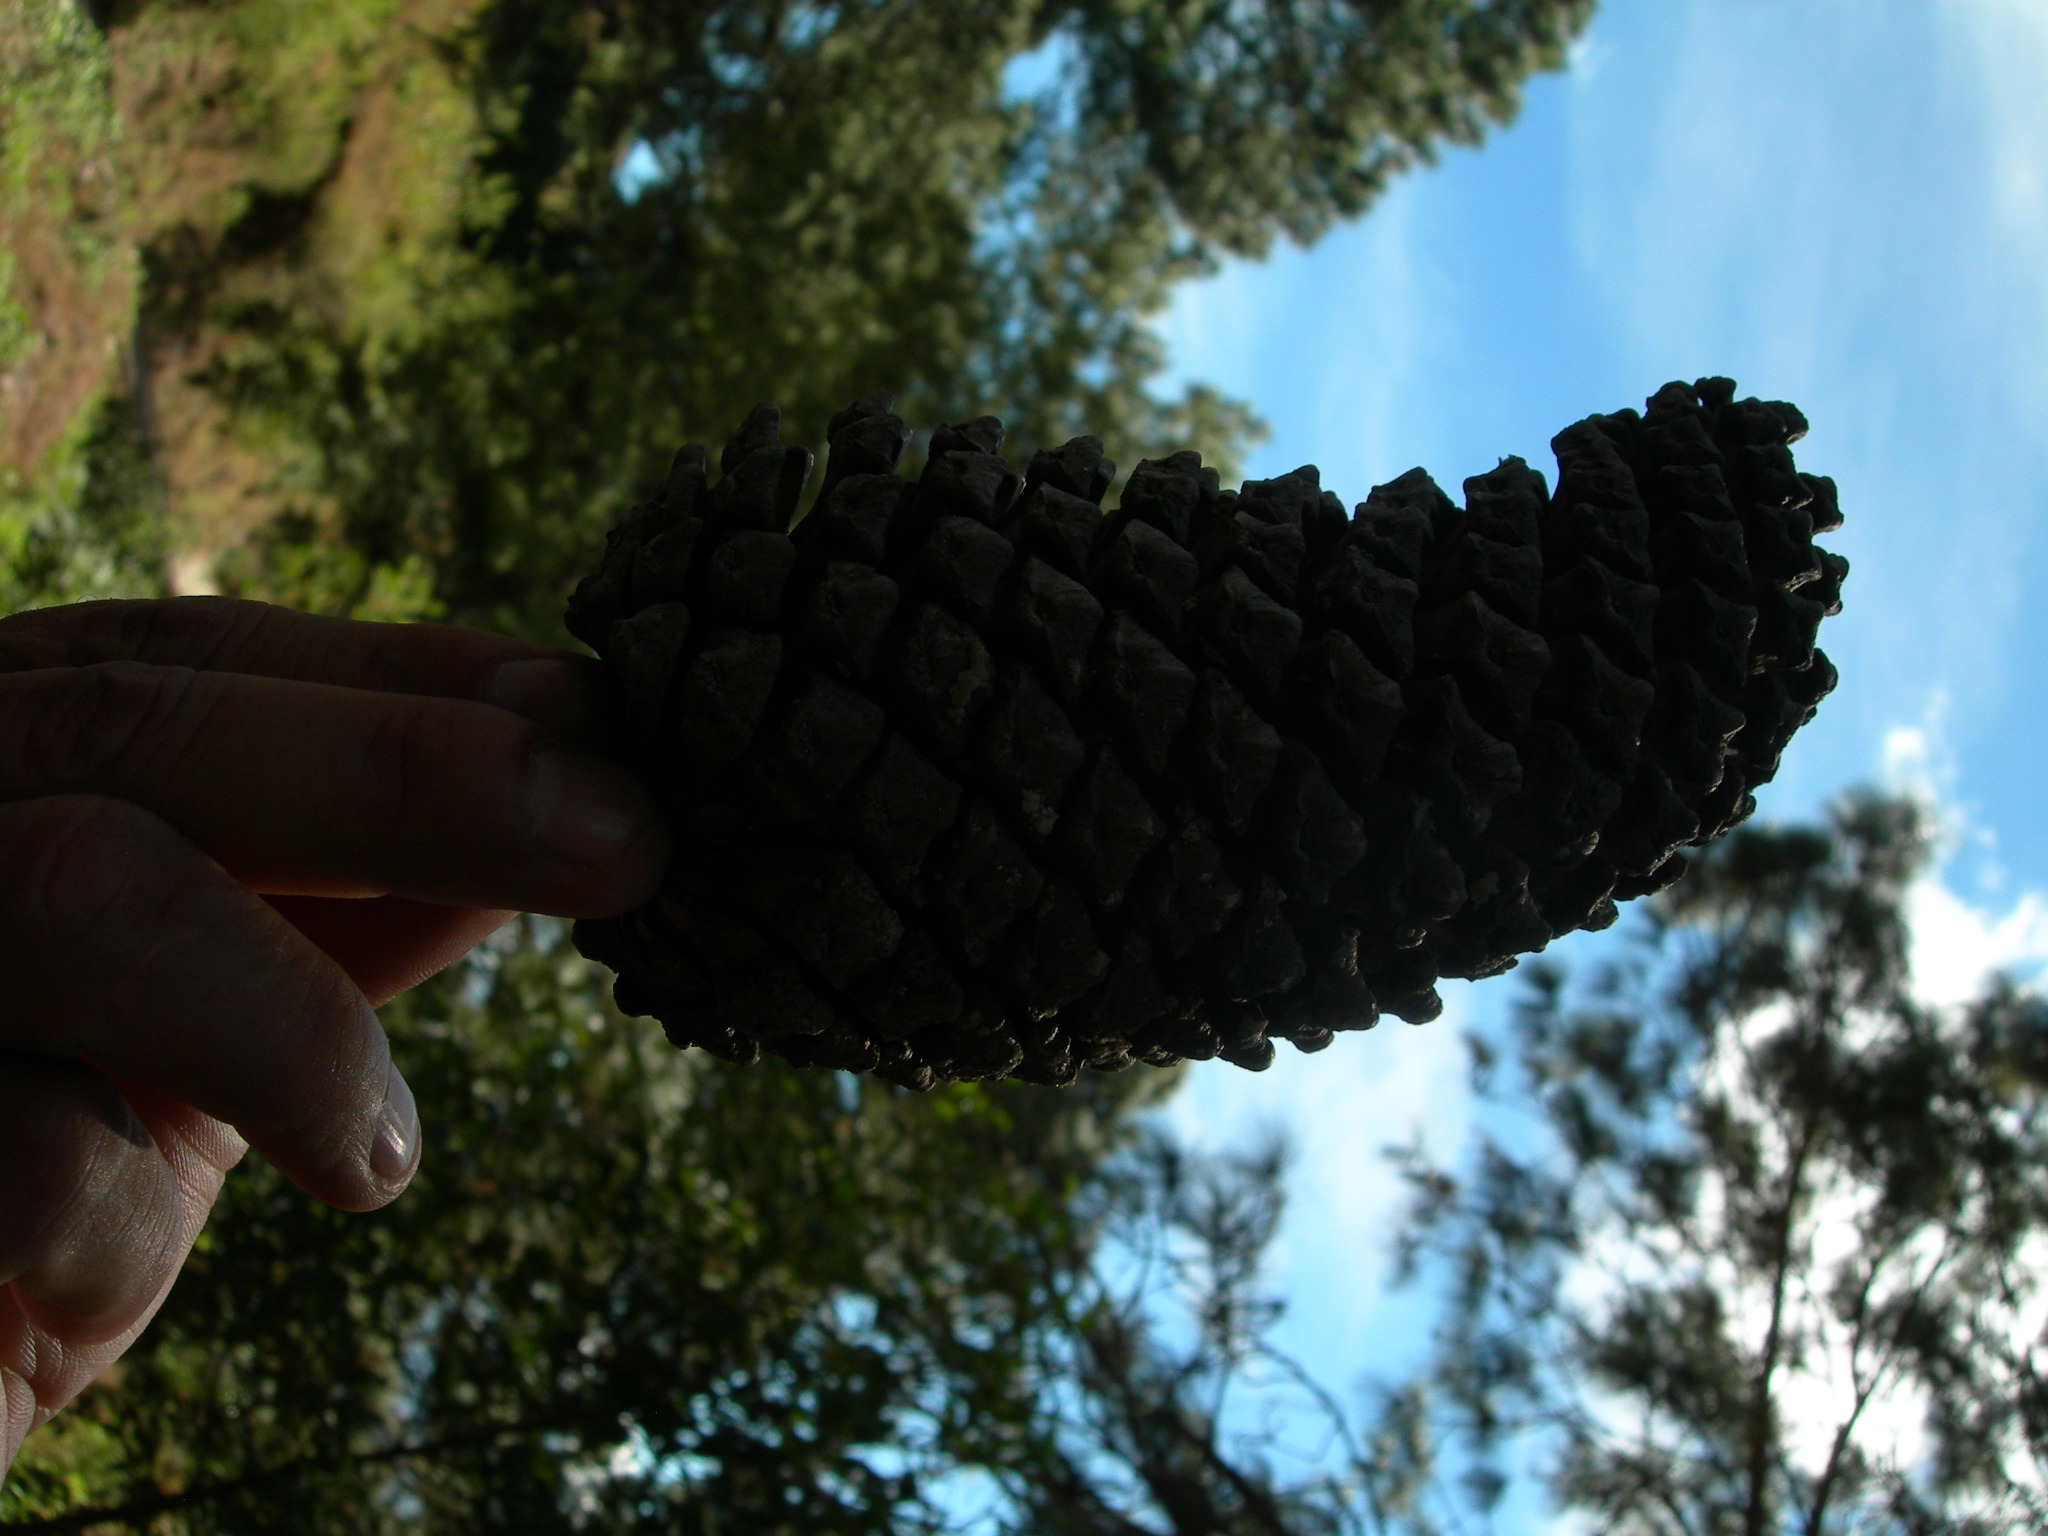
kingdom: Plantae
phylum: Tracheophyta
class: Pinopsida
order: Pinales
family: Pinaceae
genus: Pinus
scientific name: Pinus devoniana
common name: Michoacan pine
